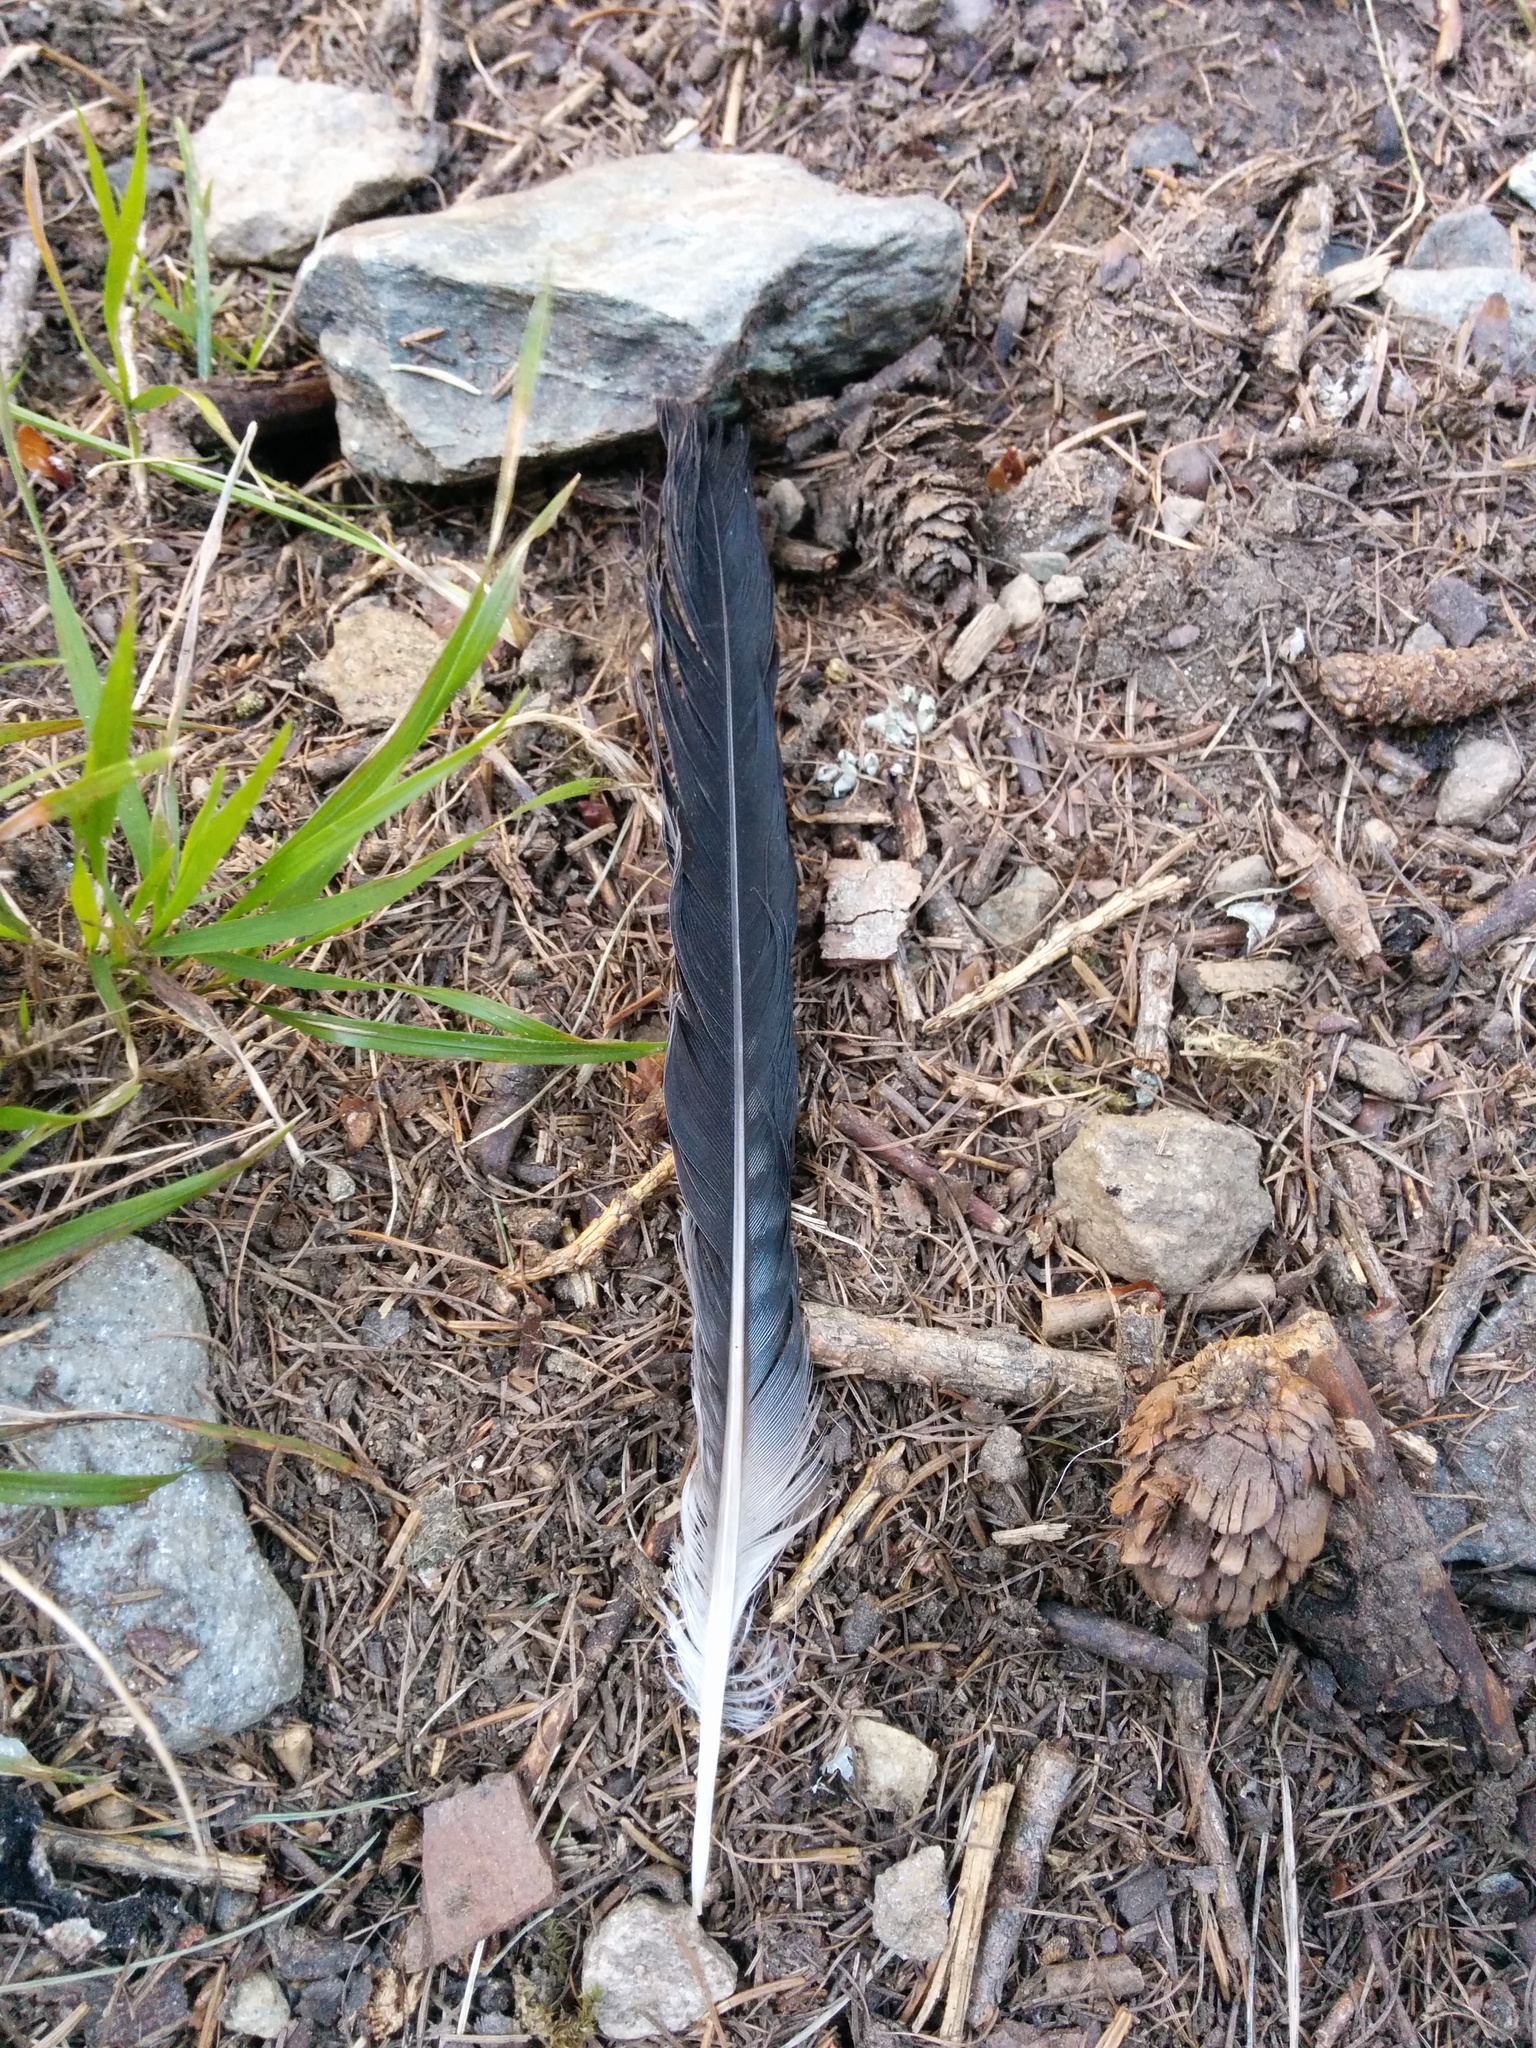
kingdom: Animalia
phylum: Chordata
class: Aves
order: Passeriformes
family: Corvidae
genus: Garrulus
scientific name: Garrulus glandarius
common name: Eurasian jay
